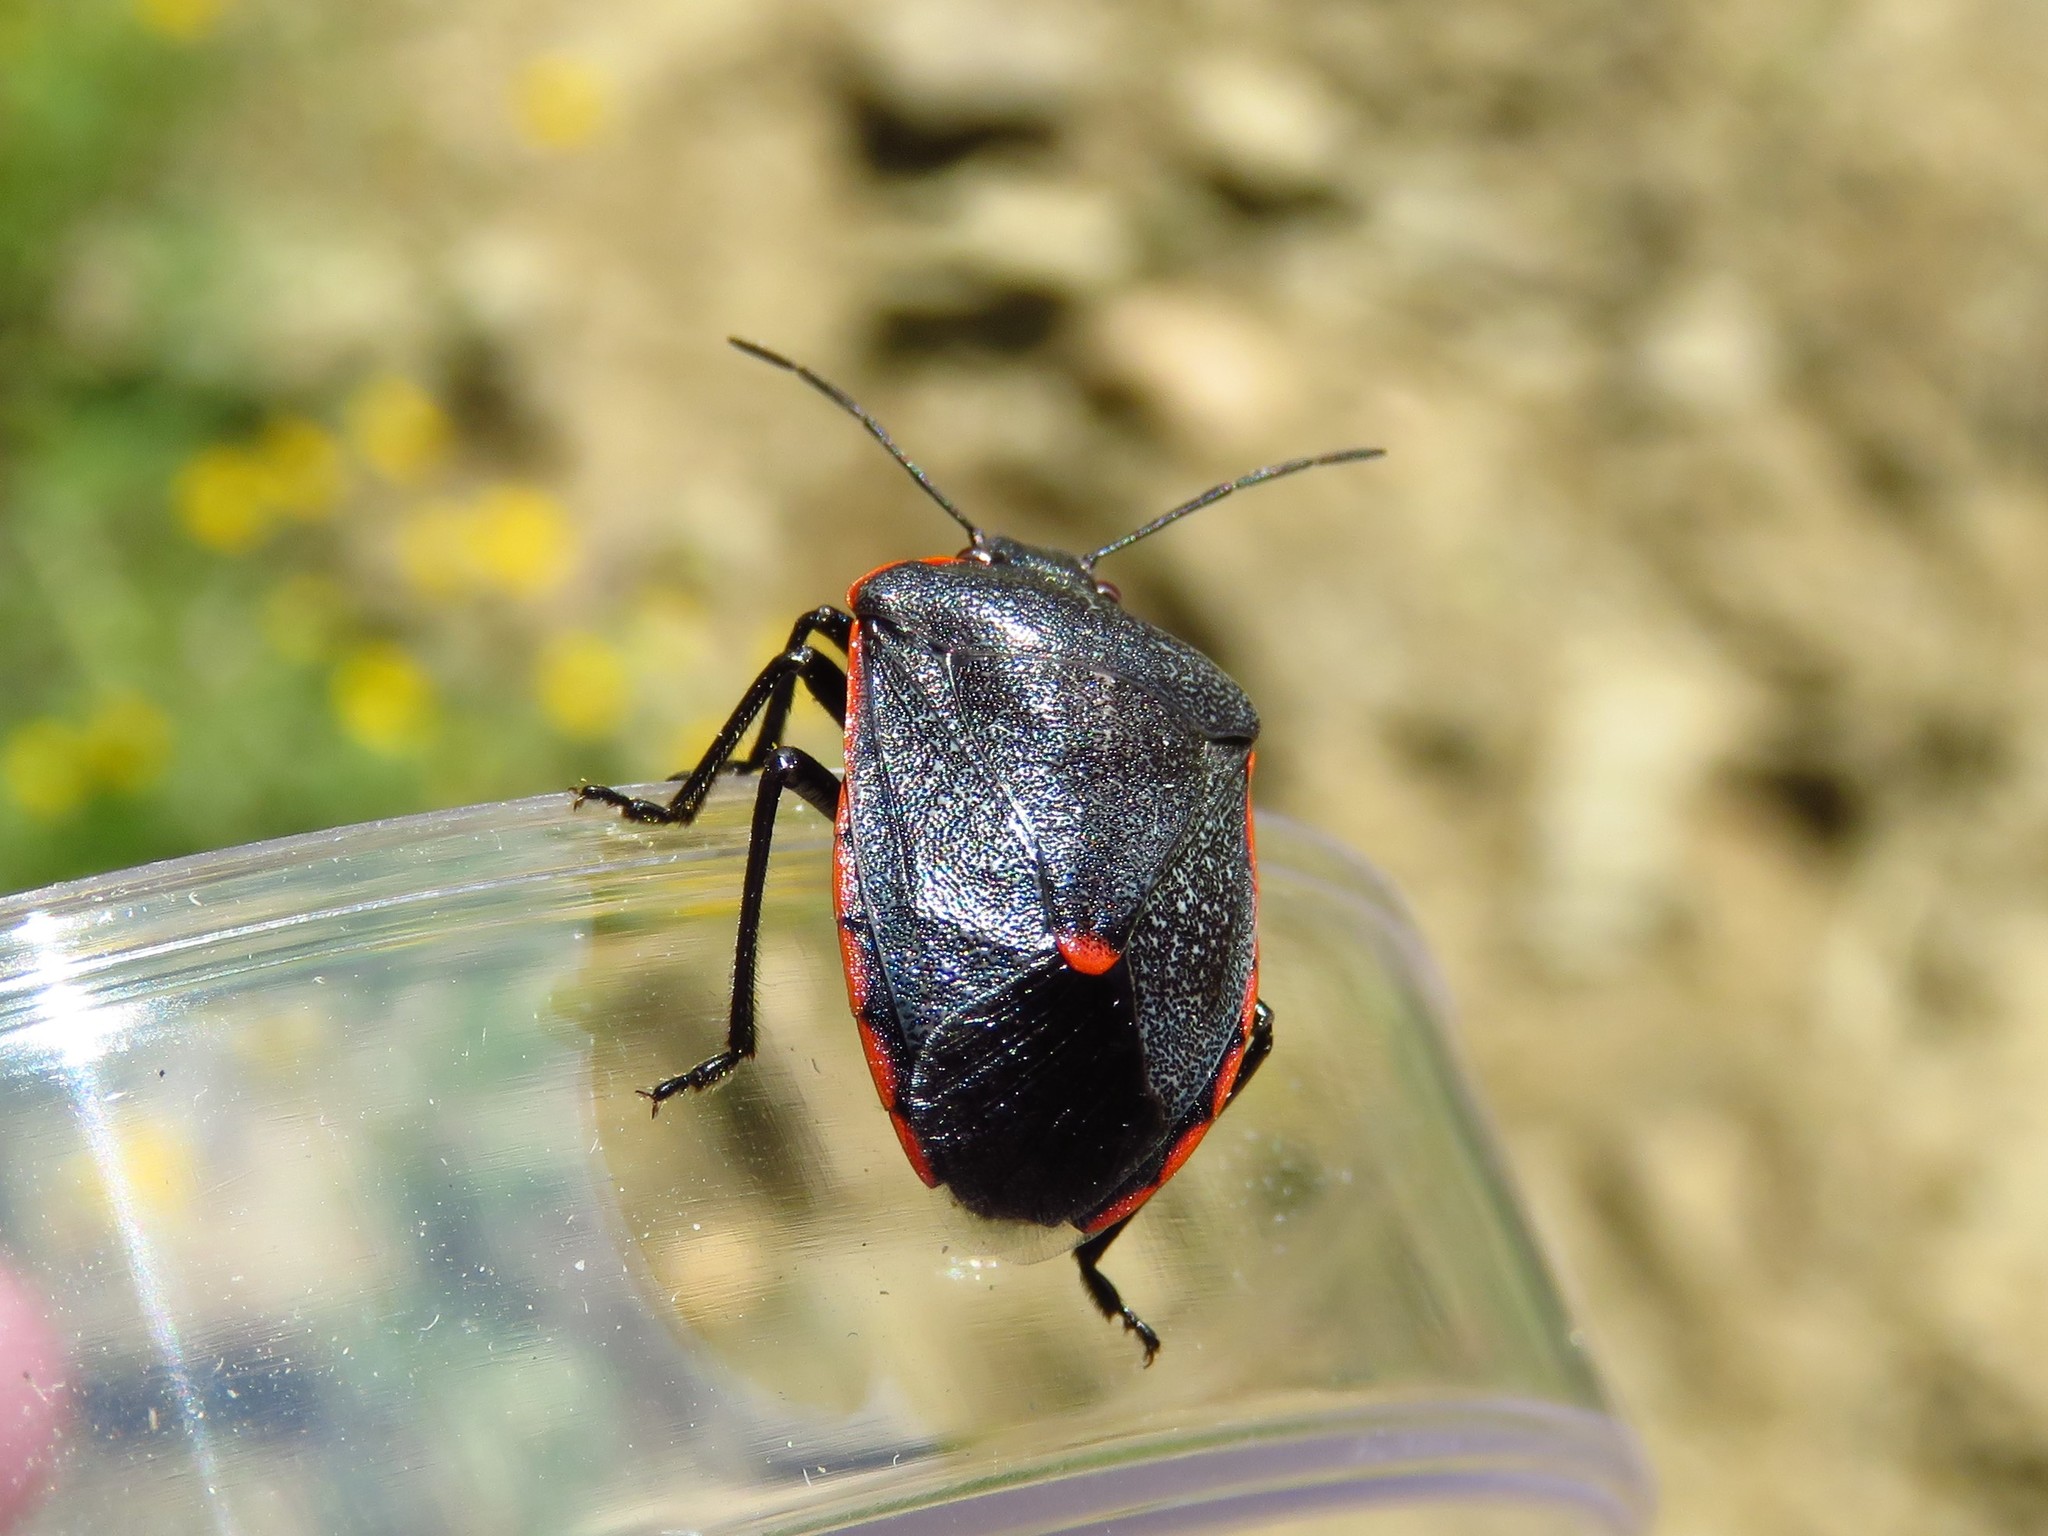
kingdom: Animalia
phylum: Arthropoda
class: Insecta
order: Hemiptera
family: Pentatomidae
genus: Chlorochroa
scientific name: Chlorochroa ligata
